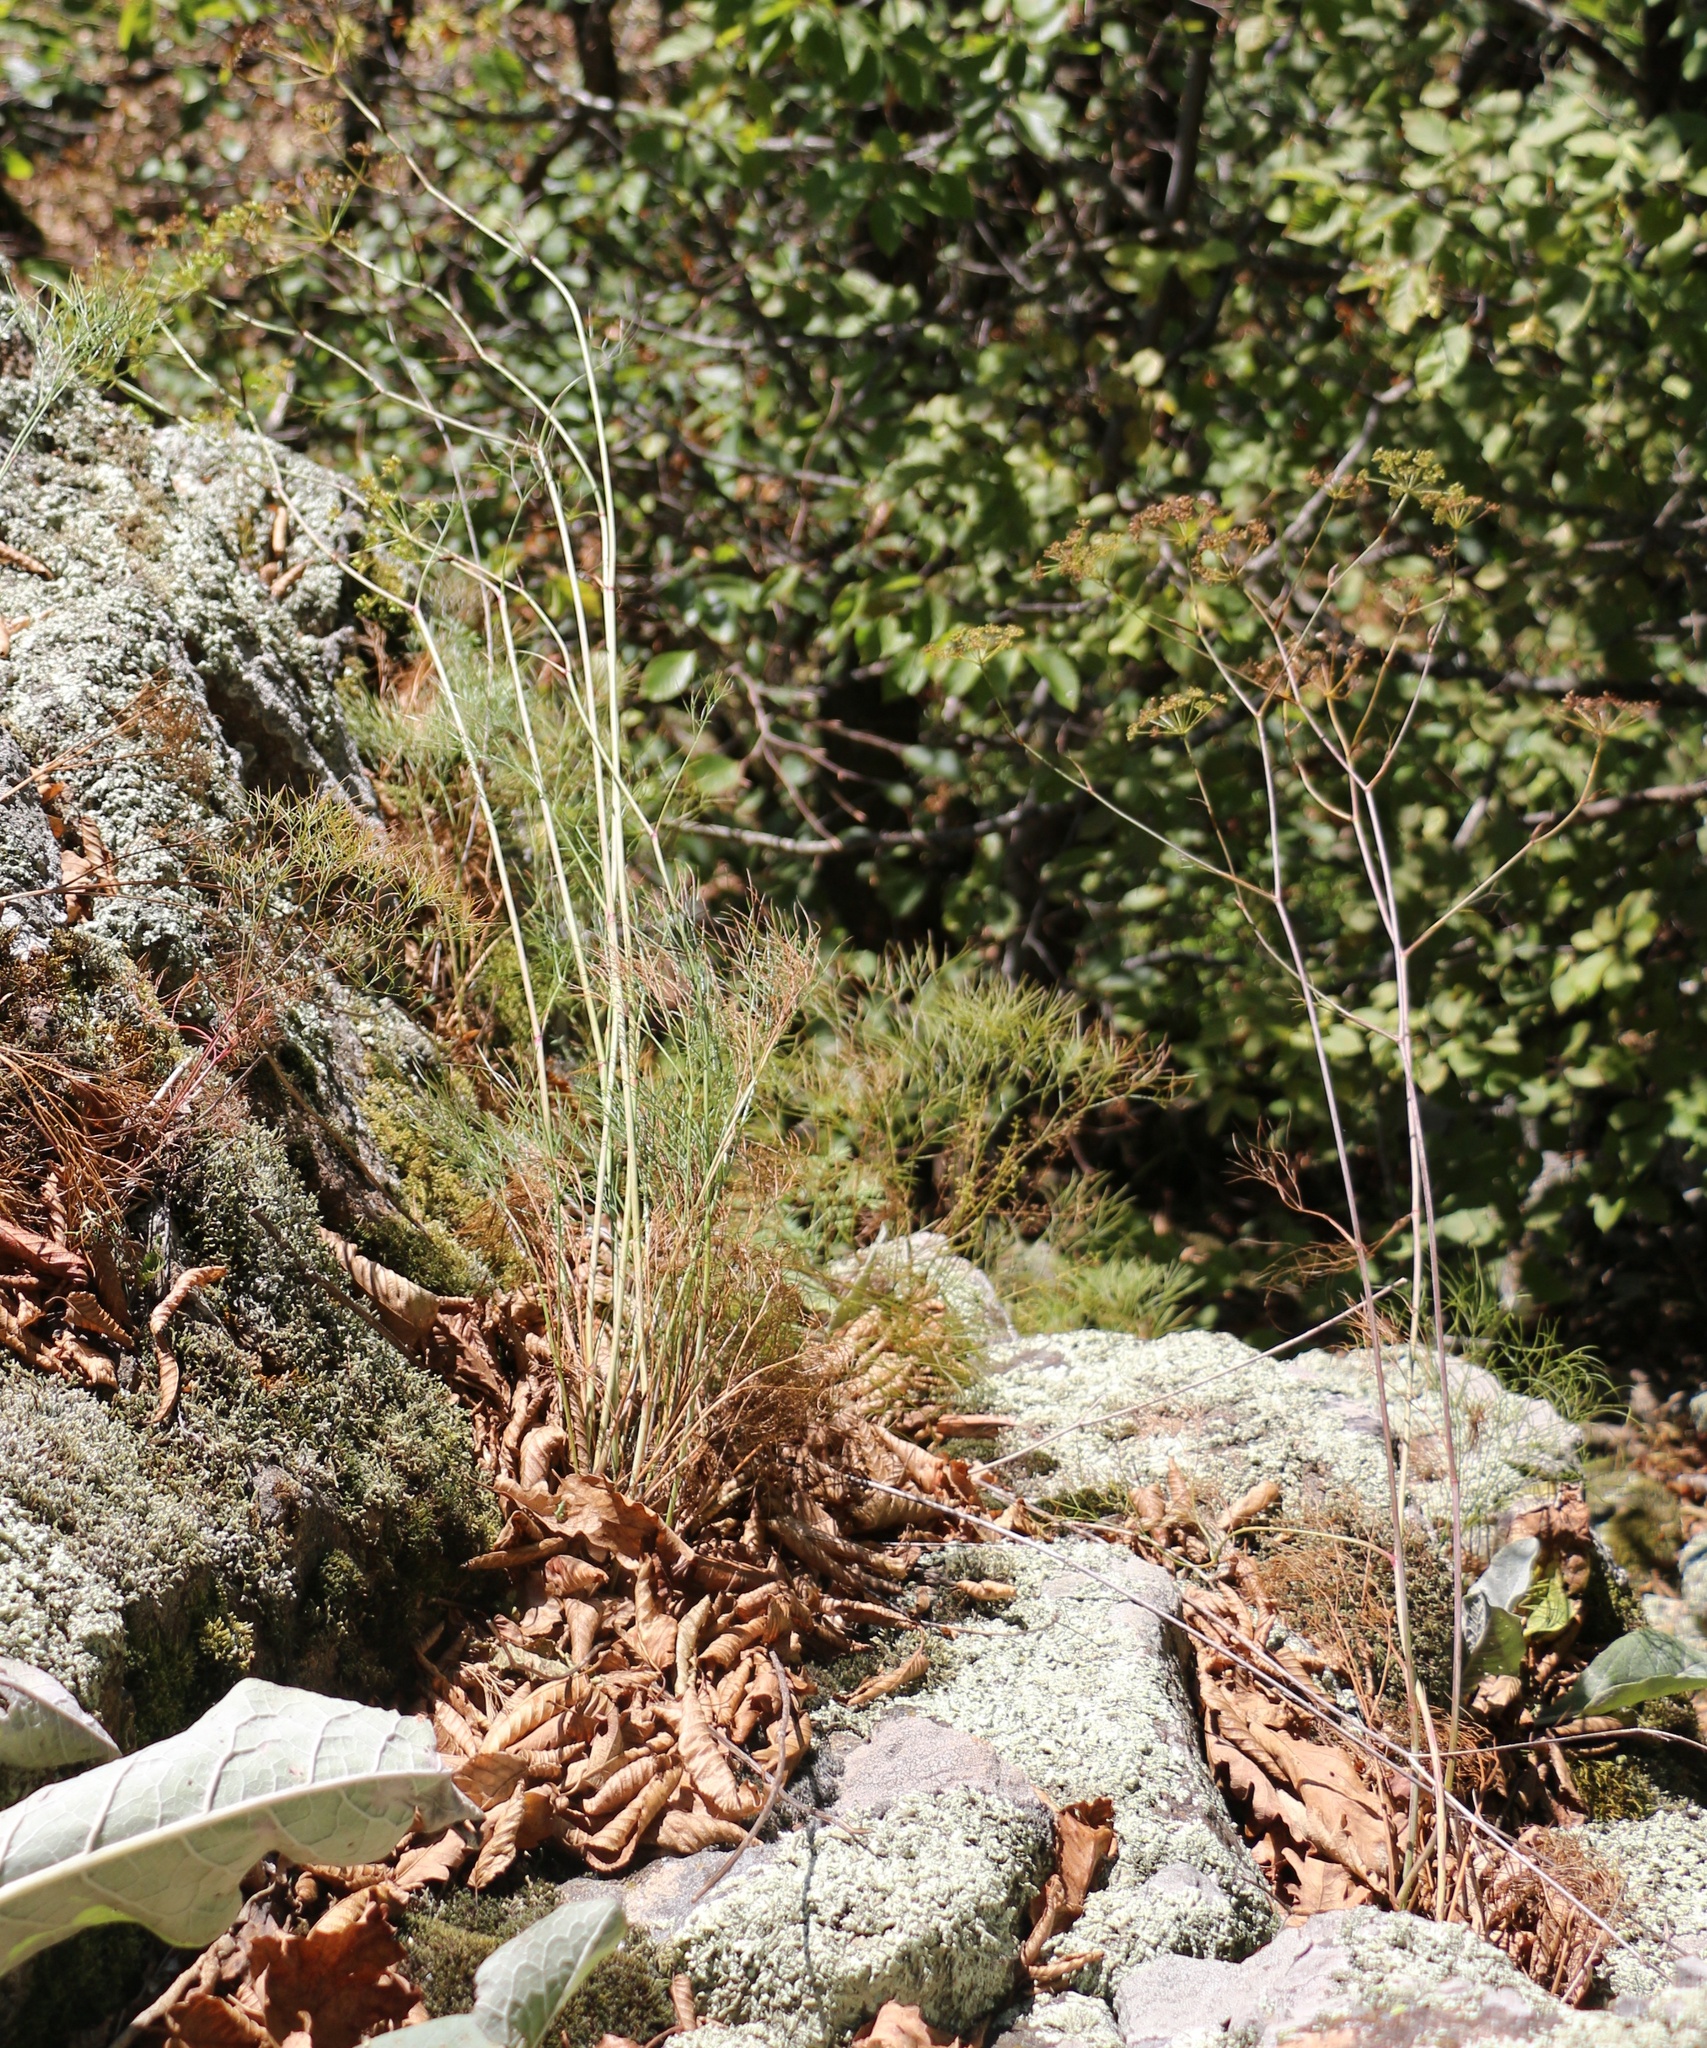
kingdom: Plantae
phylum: Tracheophyta
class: Magnoliopsida
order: Apiales
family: Apiaceae
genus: Peucedanum
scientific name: Peucedanum longifolium
